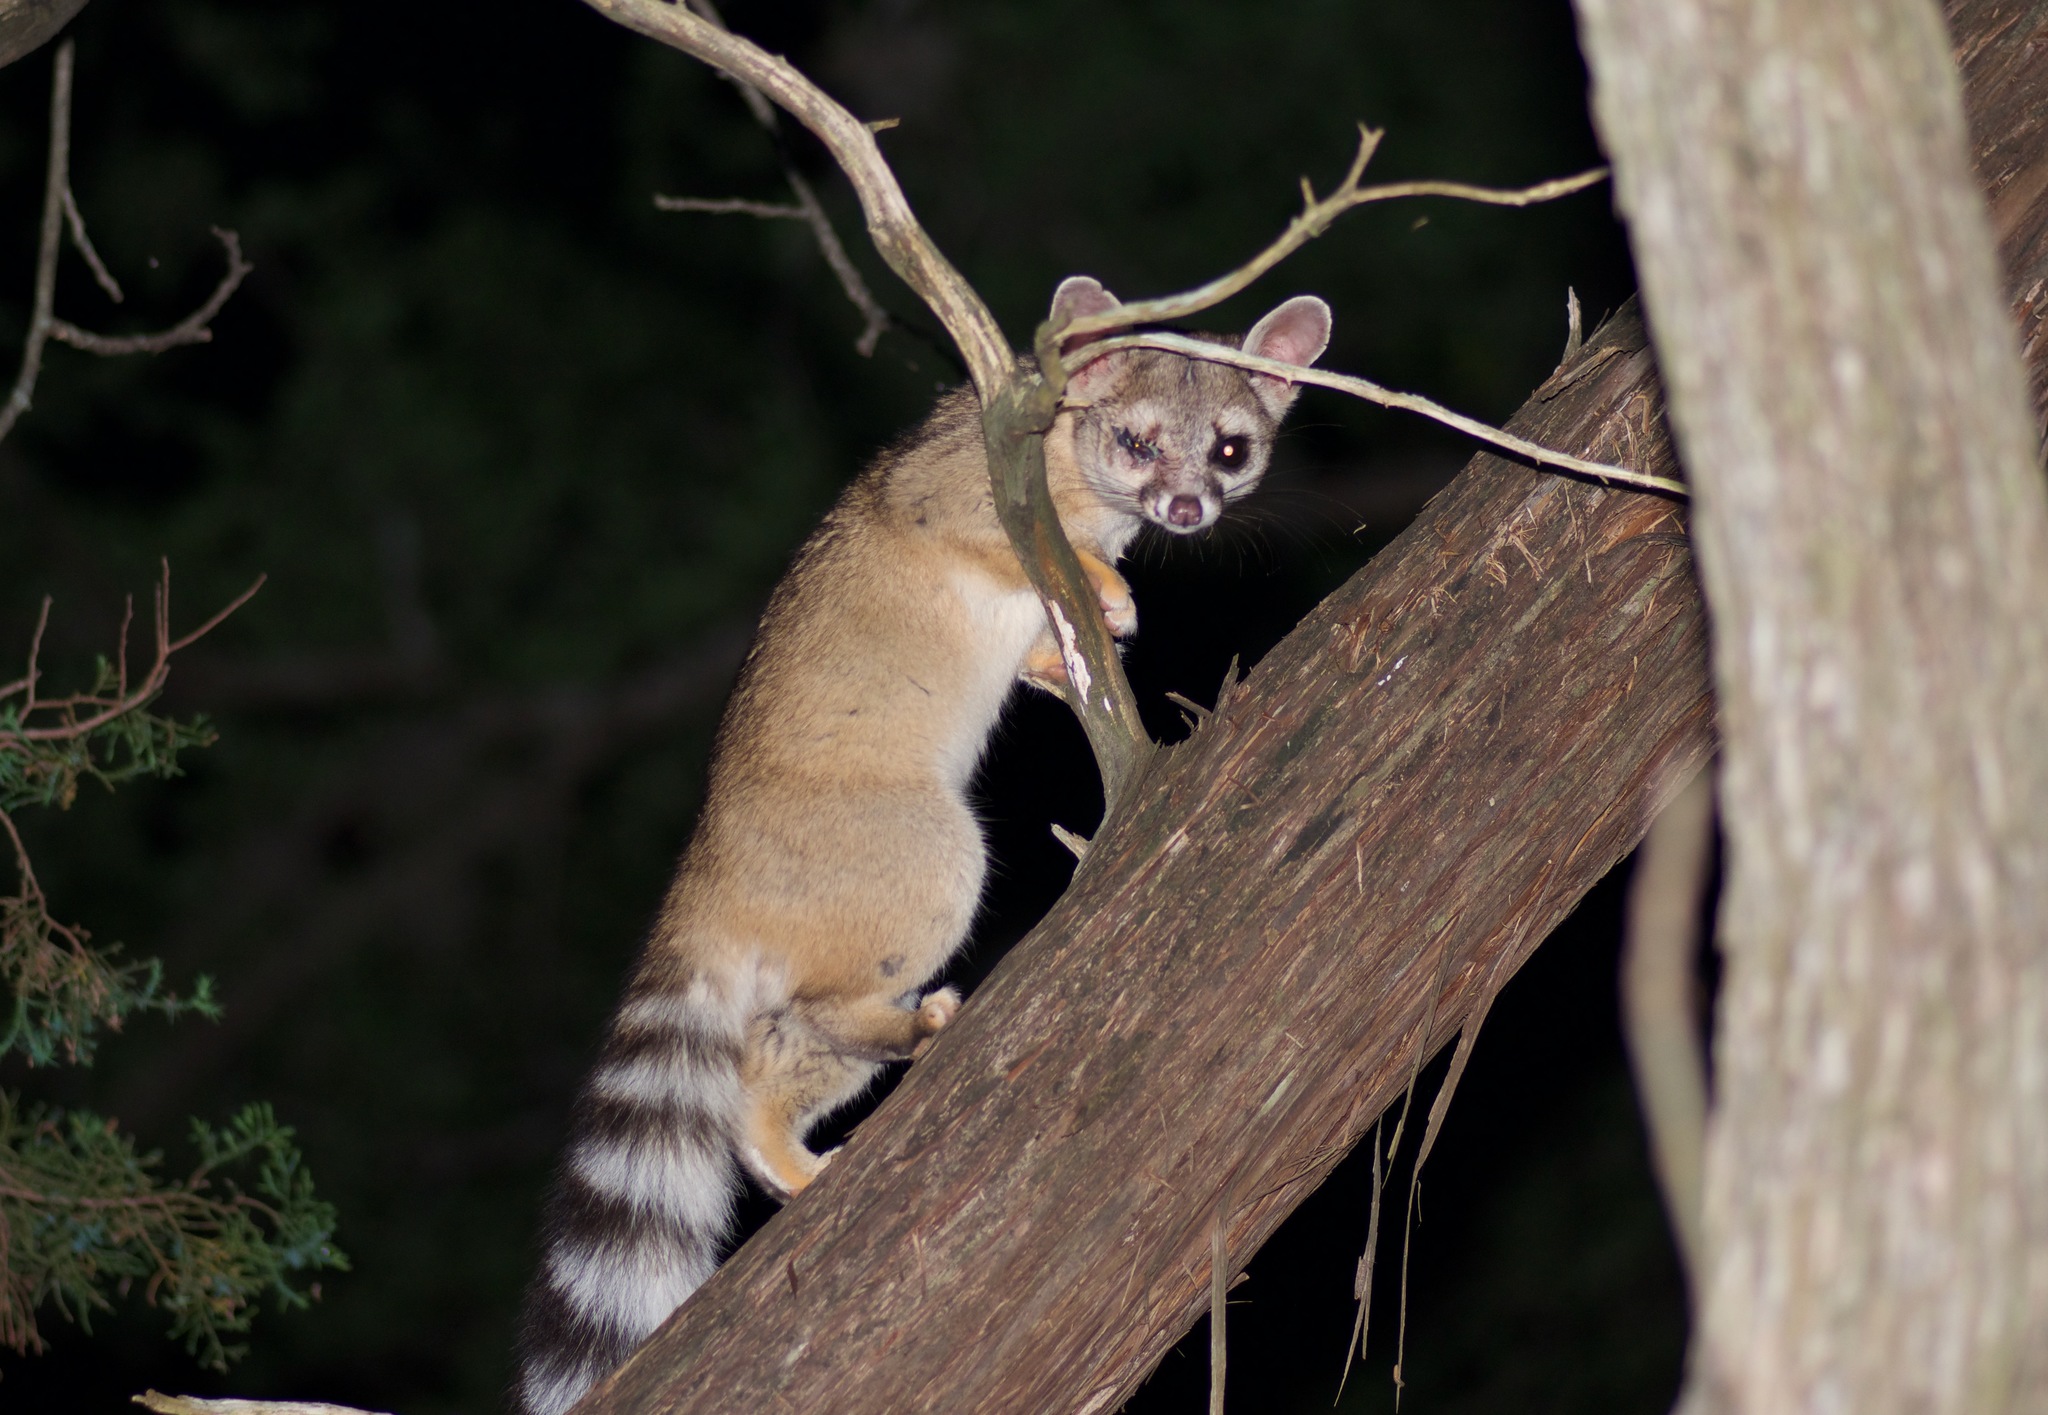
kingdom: Animalia
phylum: Chordata
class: Mammalia
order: Carnivora
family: Procyonidae
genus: Bassariscus
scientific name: Bassariscus astutus
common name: Ringtail
